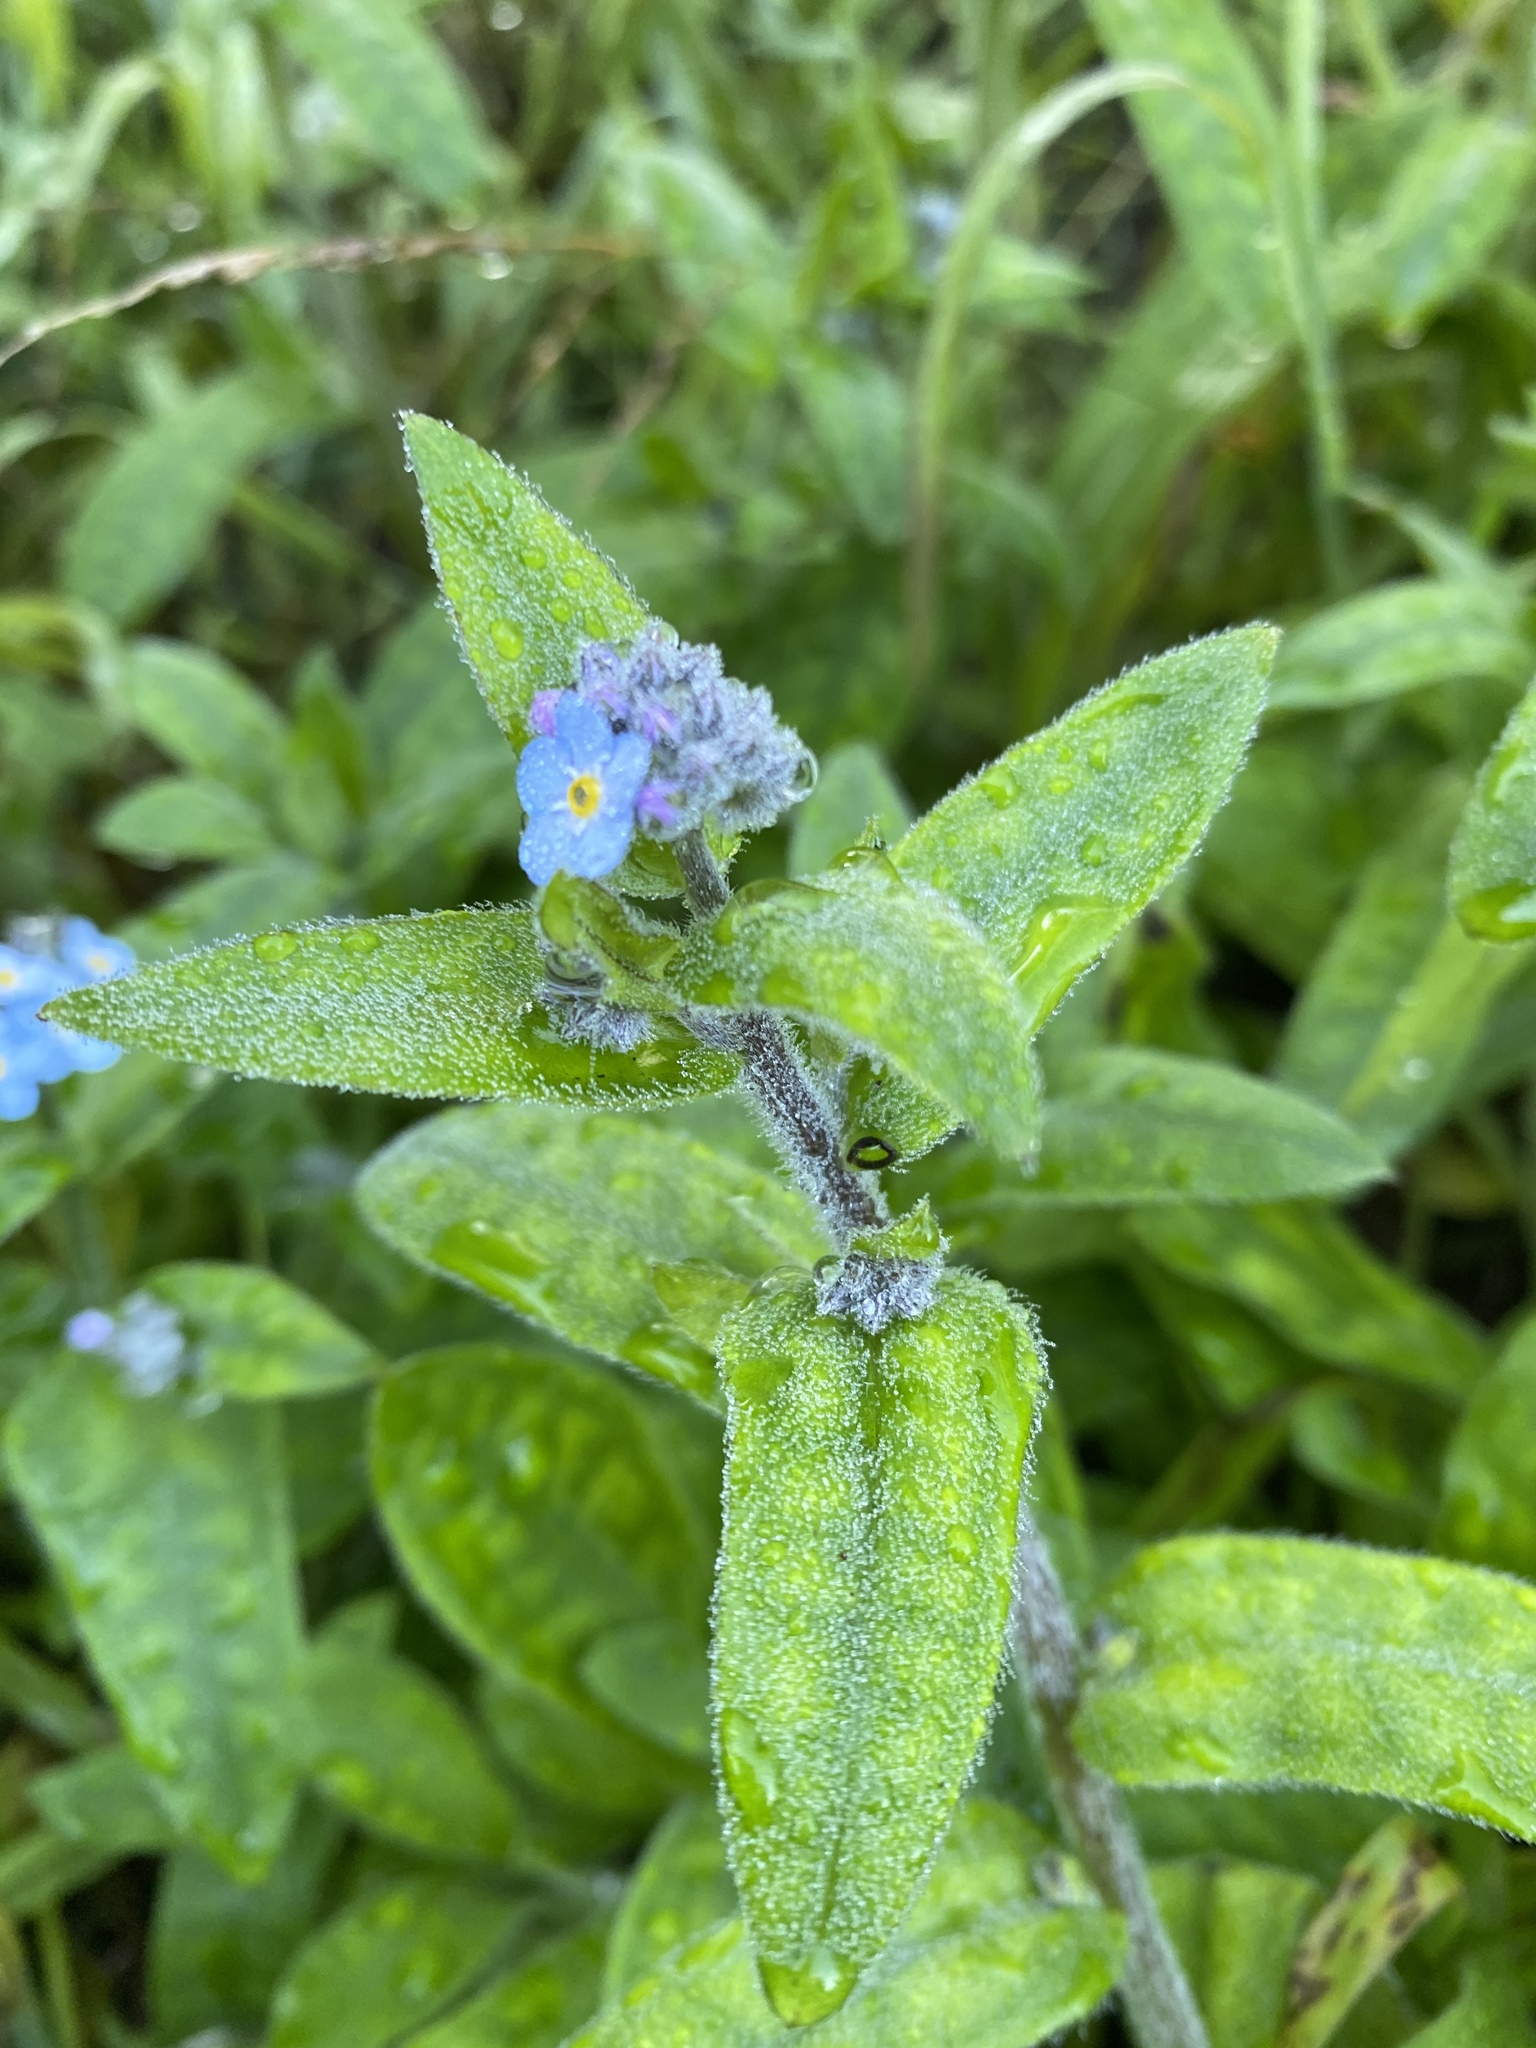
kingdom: Plantae
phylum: Tracheophyta
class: Magnoliopsida
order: Boraginales
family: Boraginaceae
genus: Myosotis
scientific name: Myosotis latifolia
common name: Broadleaf forget-me-not
